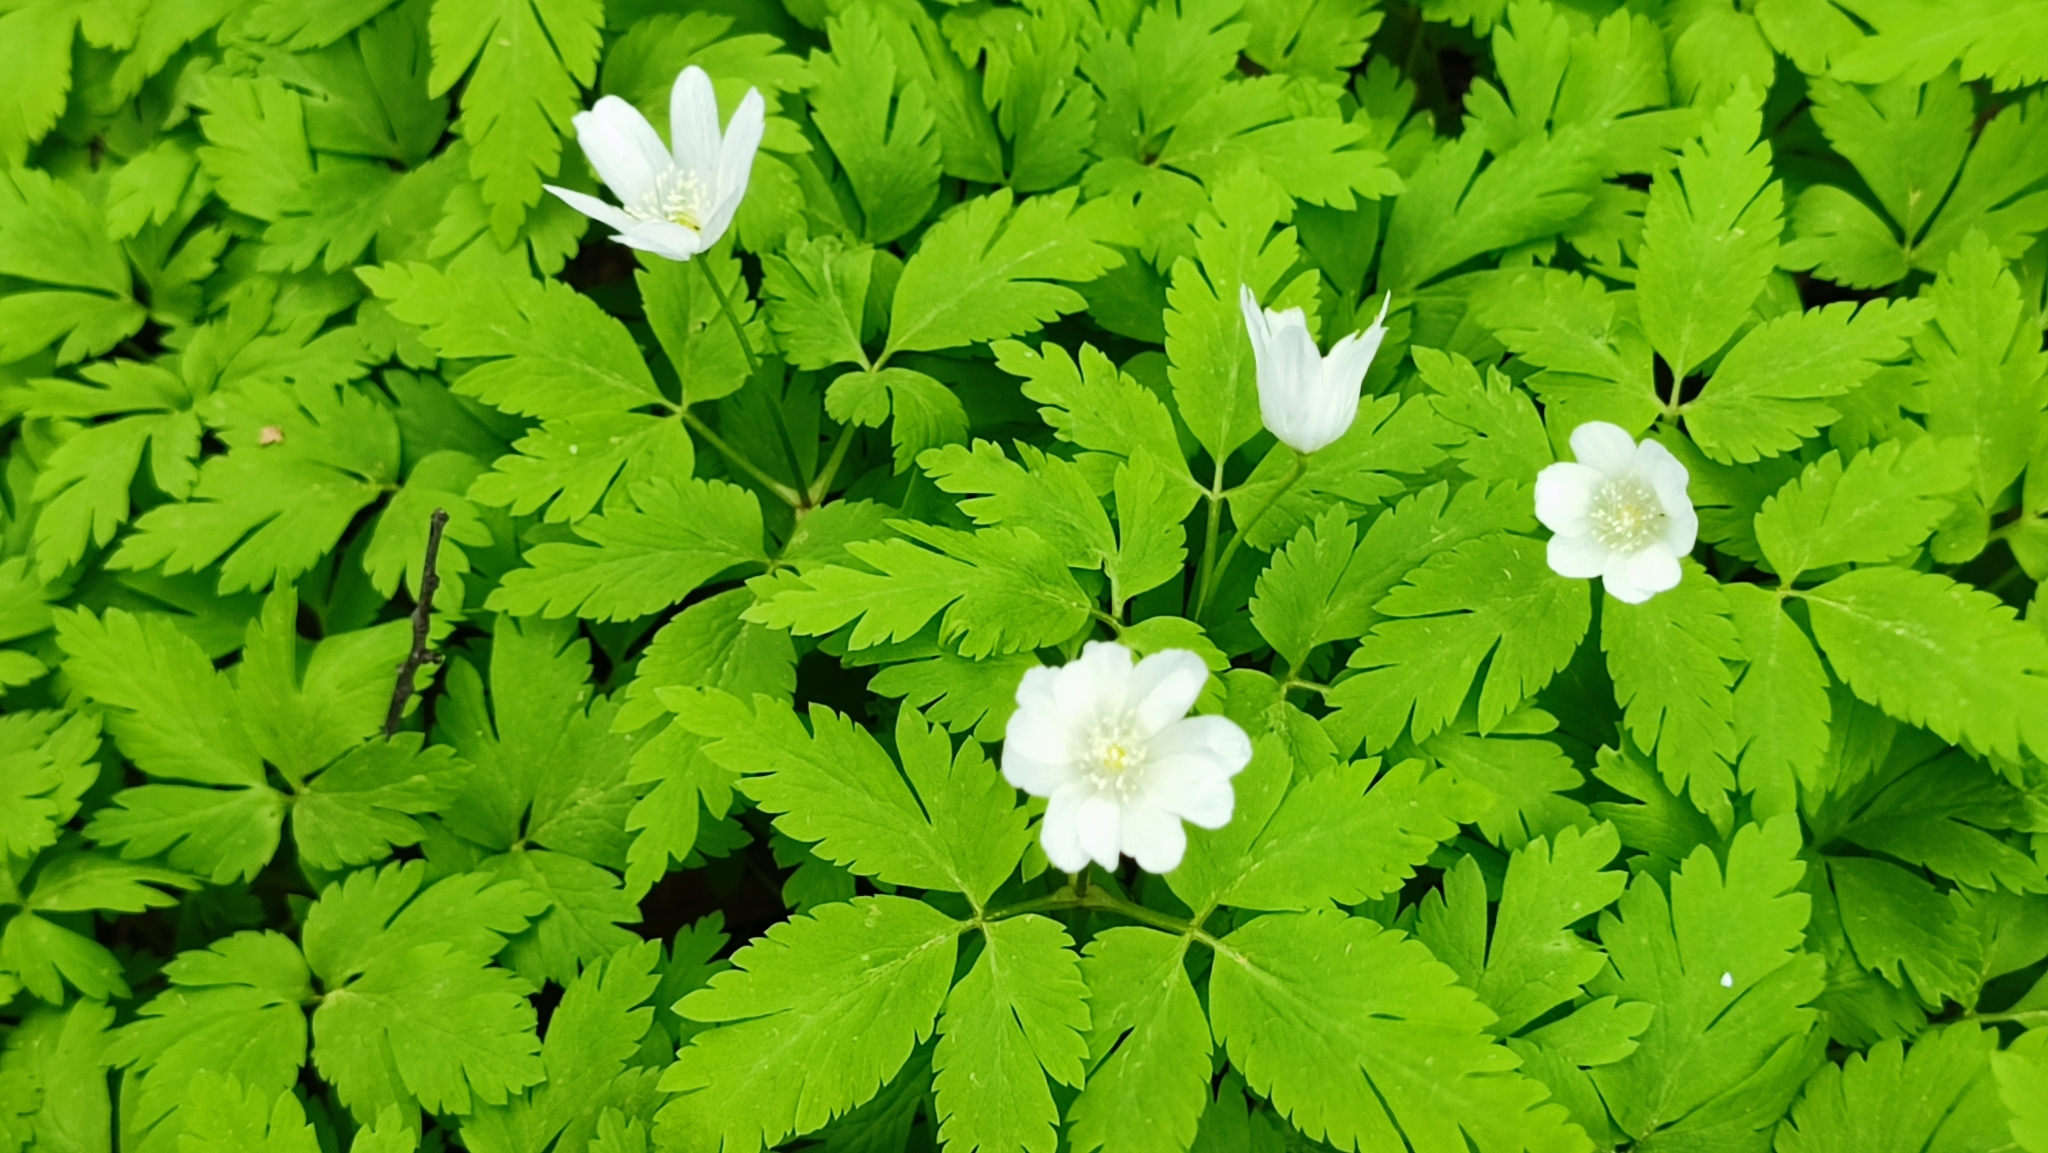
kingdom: Plantae
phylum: Tracheophyta
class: Magnoliopsida
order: Ranunculales
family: Ranunculaceae
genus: Anemone
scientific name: Anemone altaica
